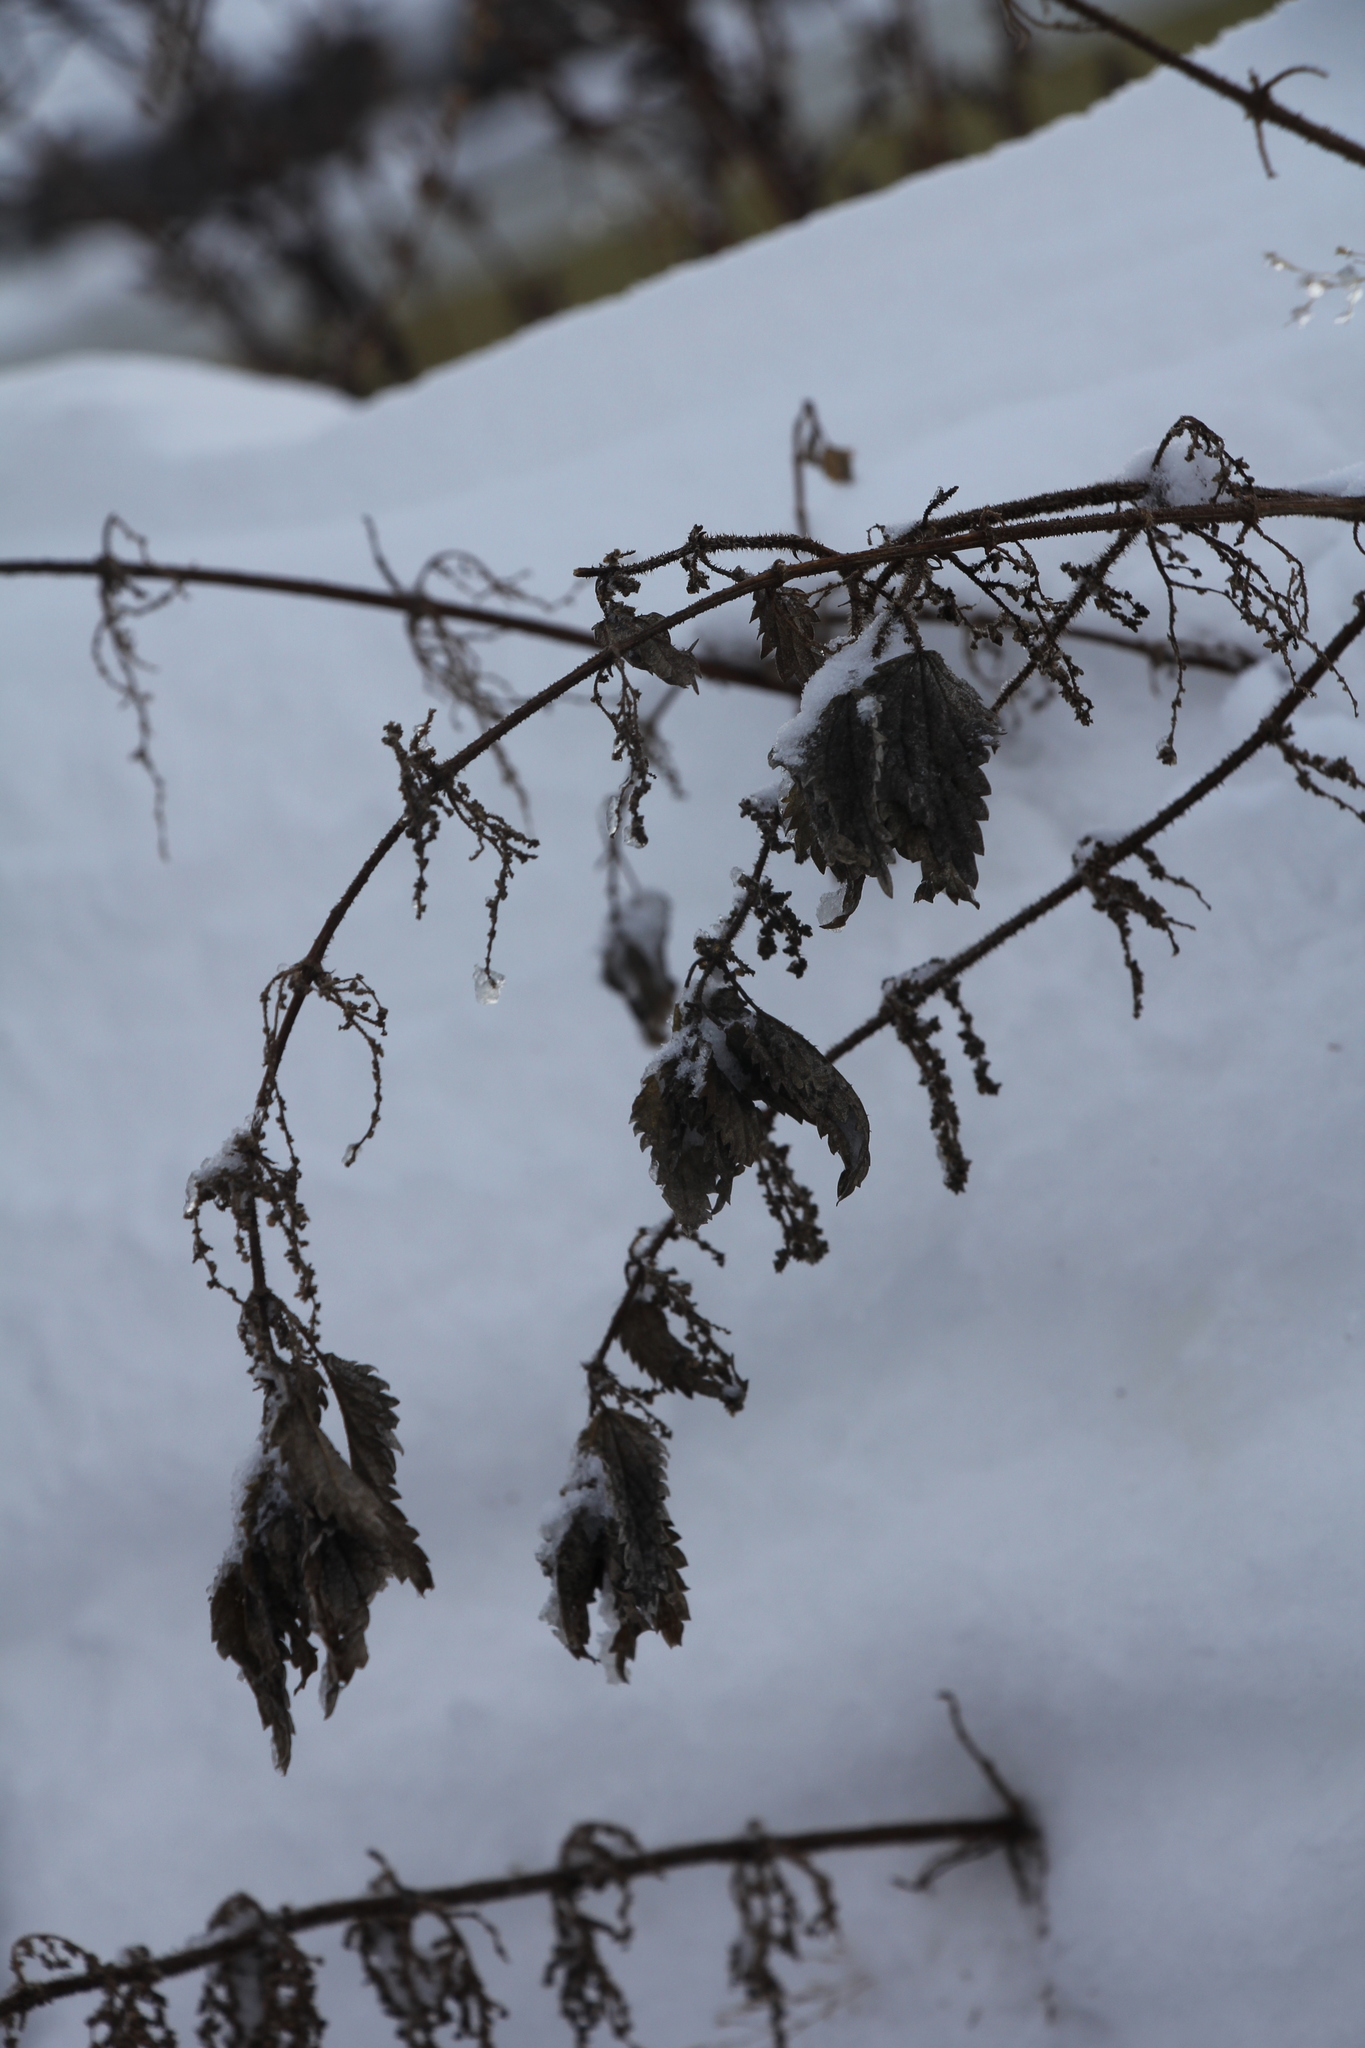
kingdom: Plantae
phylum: Tracheophyta
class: Magnoliopsida
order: Rosales
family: Urticaceae
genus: Urtica
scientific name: Urtica dioica
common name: Common nettle
